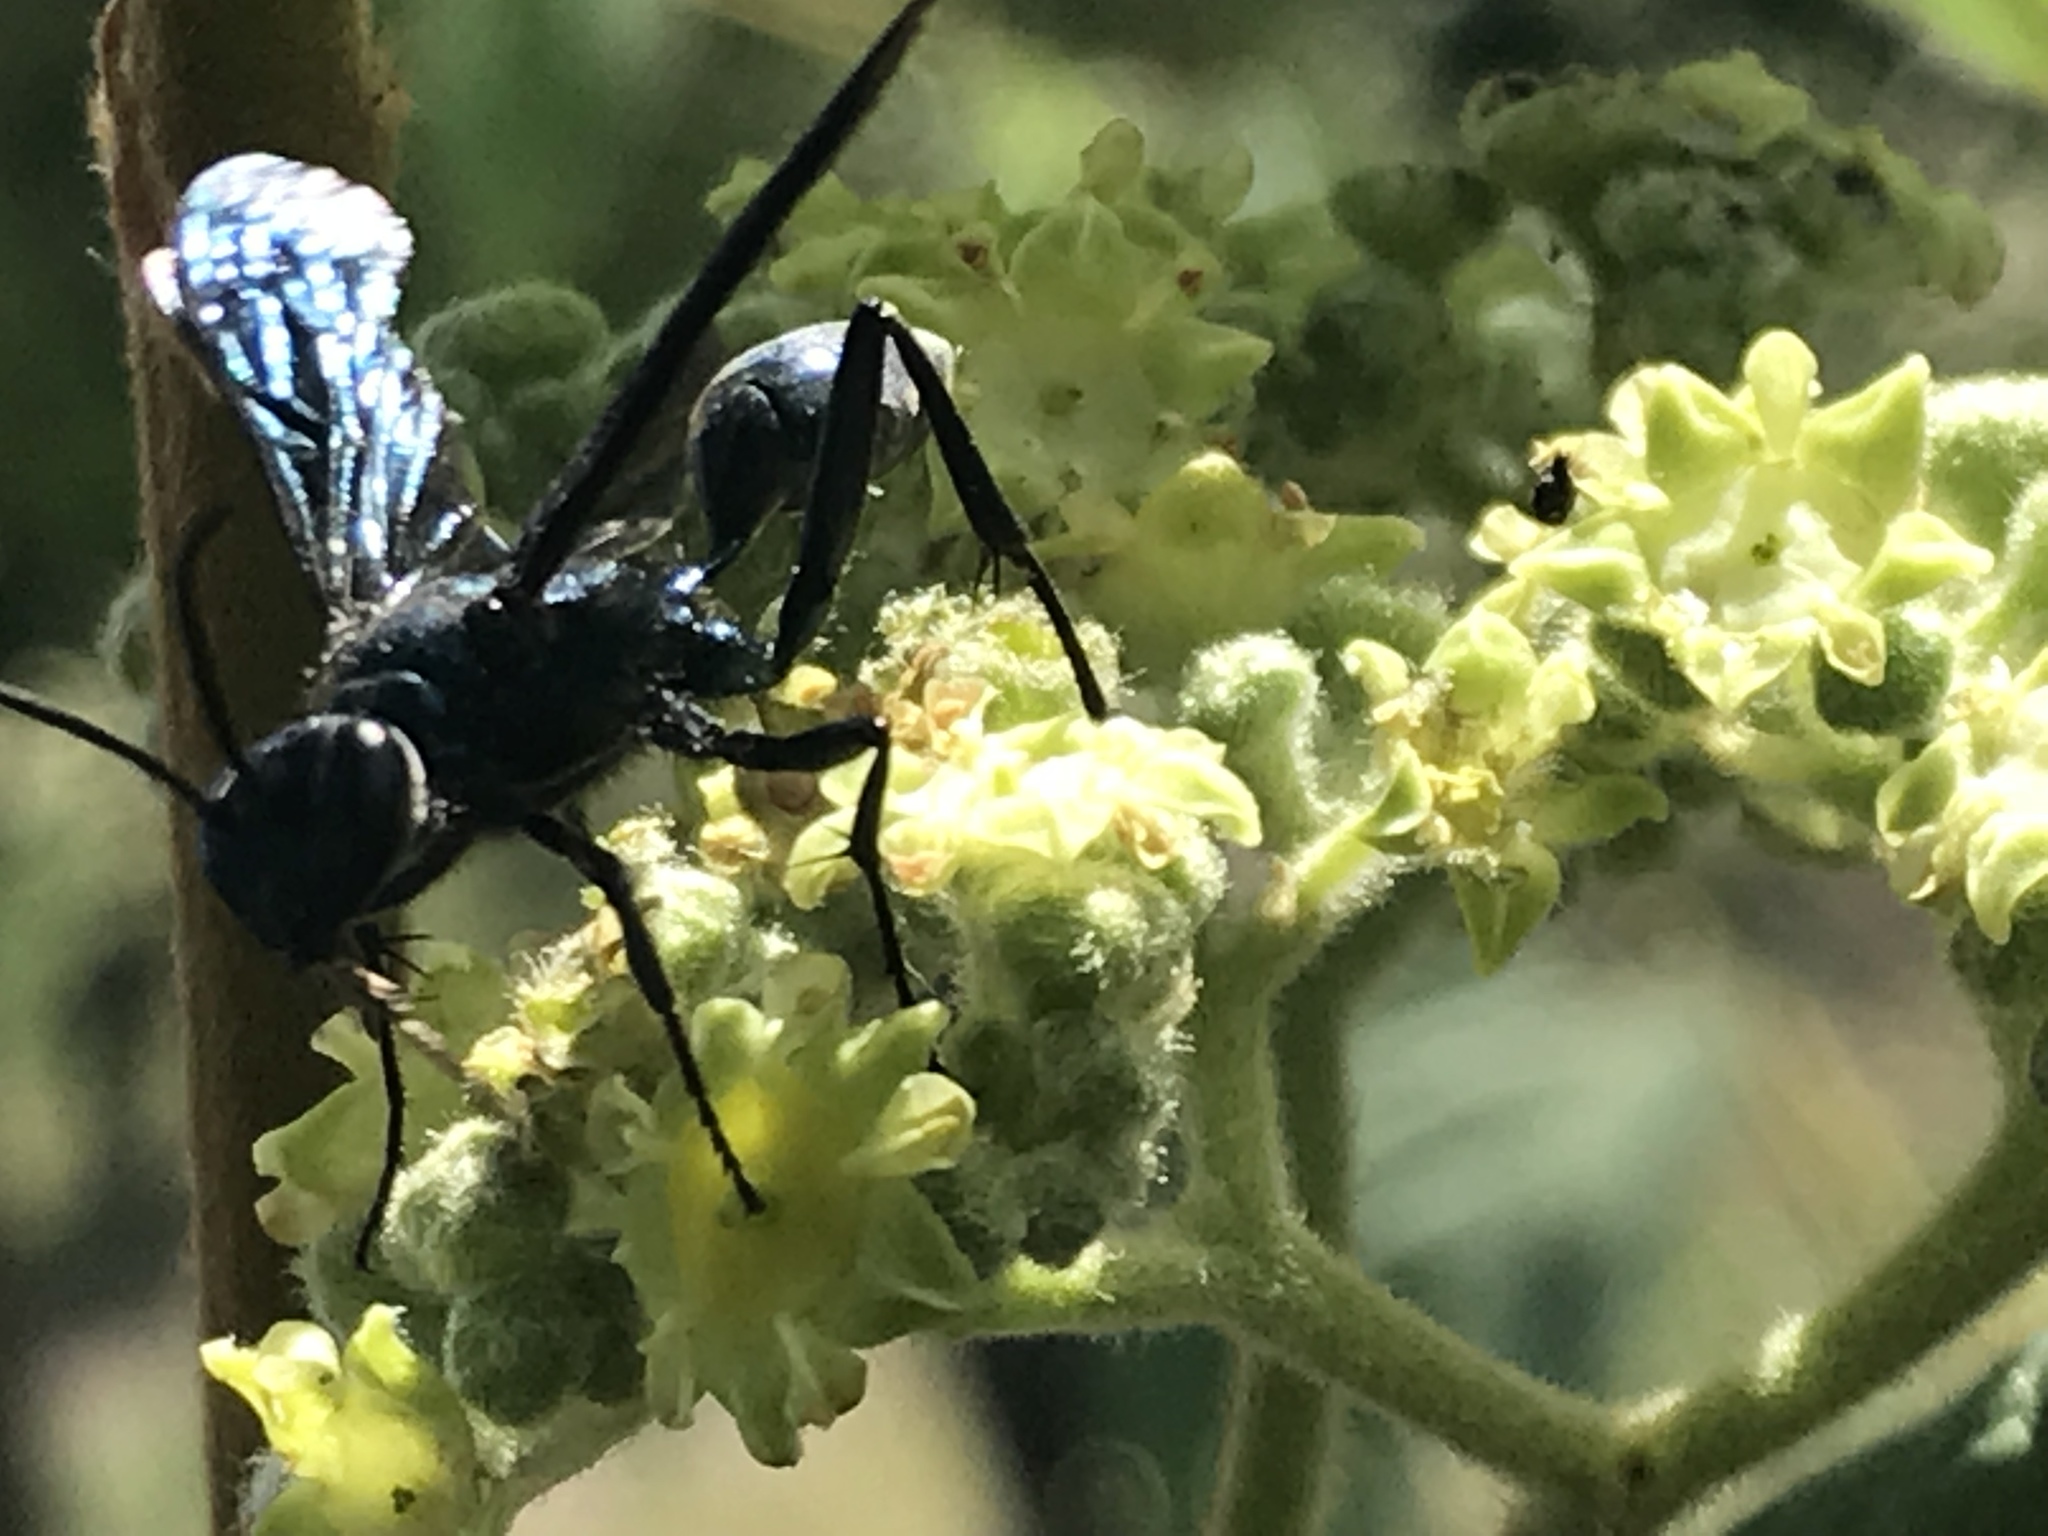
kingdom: Animalia
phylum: Arthropoda
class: Insecta
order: Hymenoptera
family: Sphecidae
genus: Chalybion
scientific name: Chalybion californicum
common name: Mud dauber
